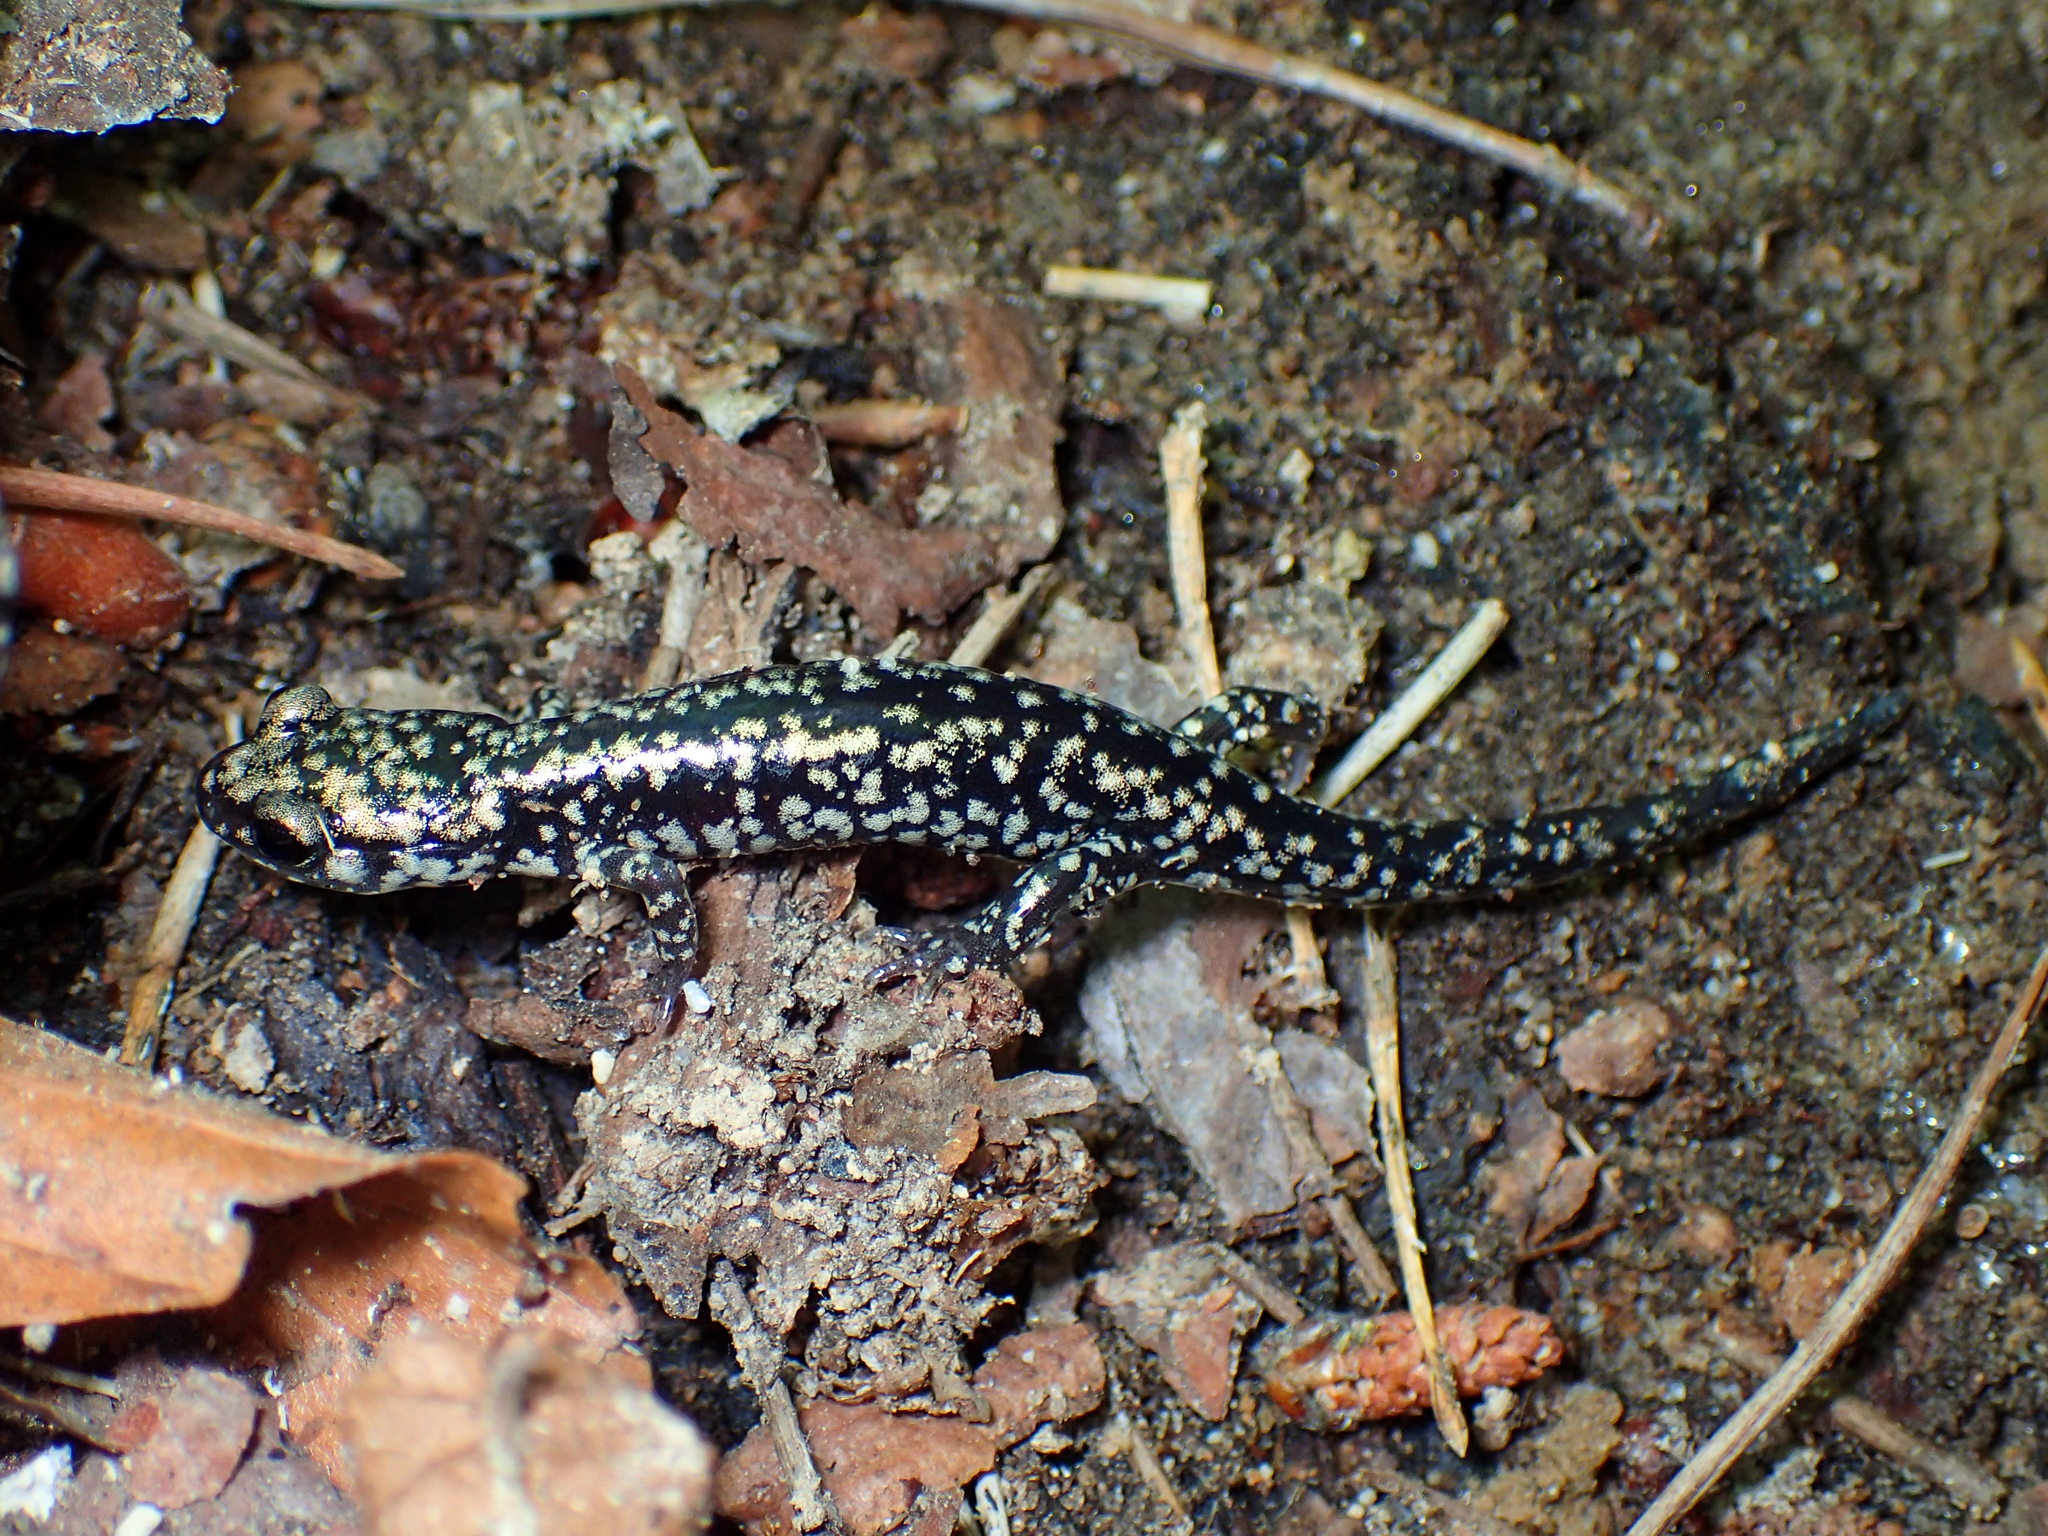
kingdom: Animalia
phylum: Chordata
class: Amphibia
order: Caudata
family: Plethodontidae
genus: Plethodon
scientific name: Plethodon glutinosus
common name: Northern slimy salamander
